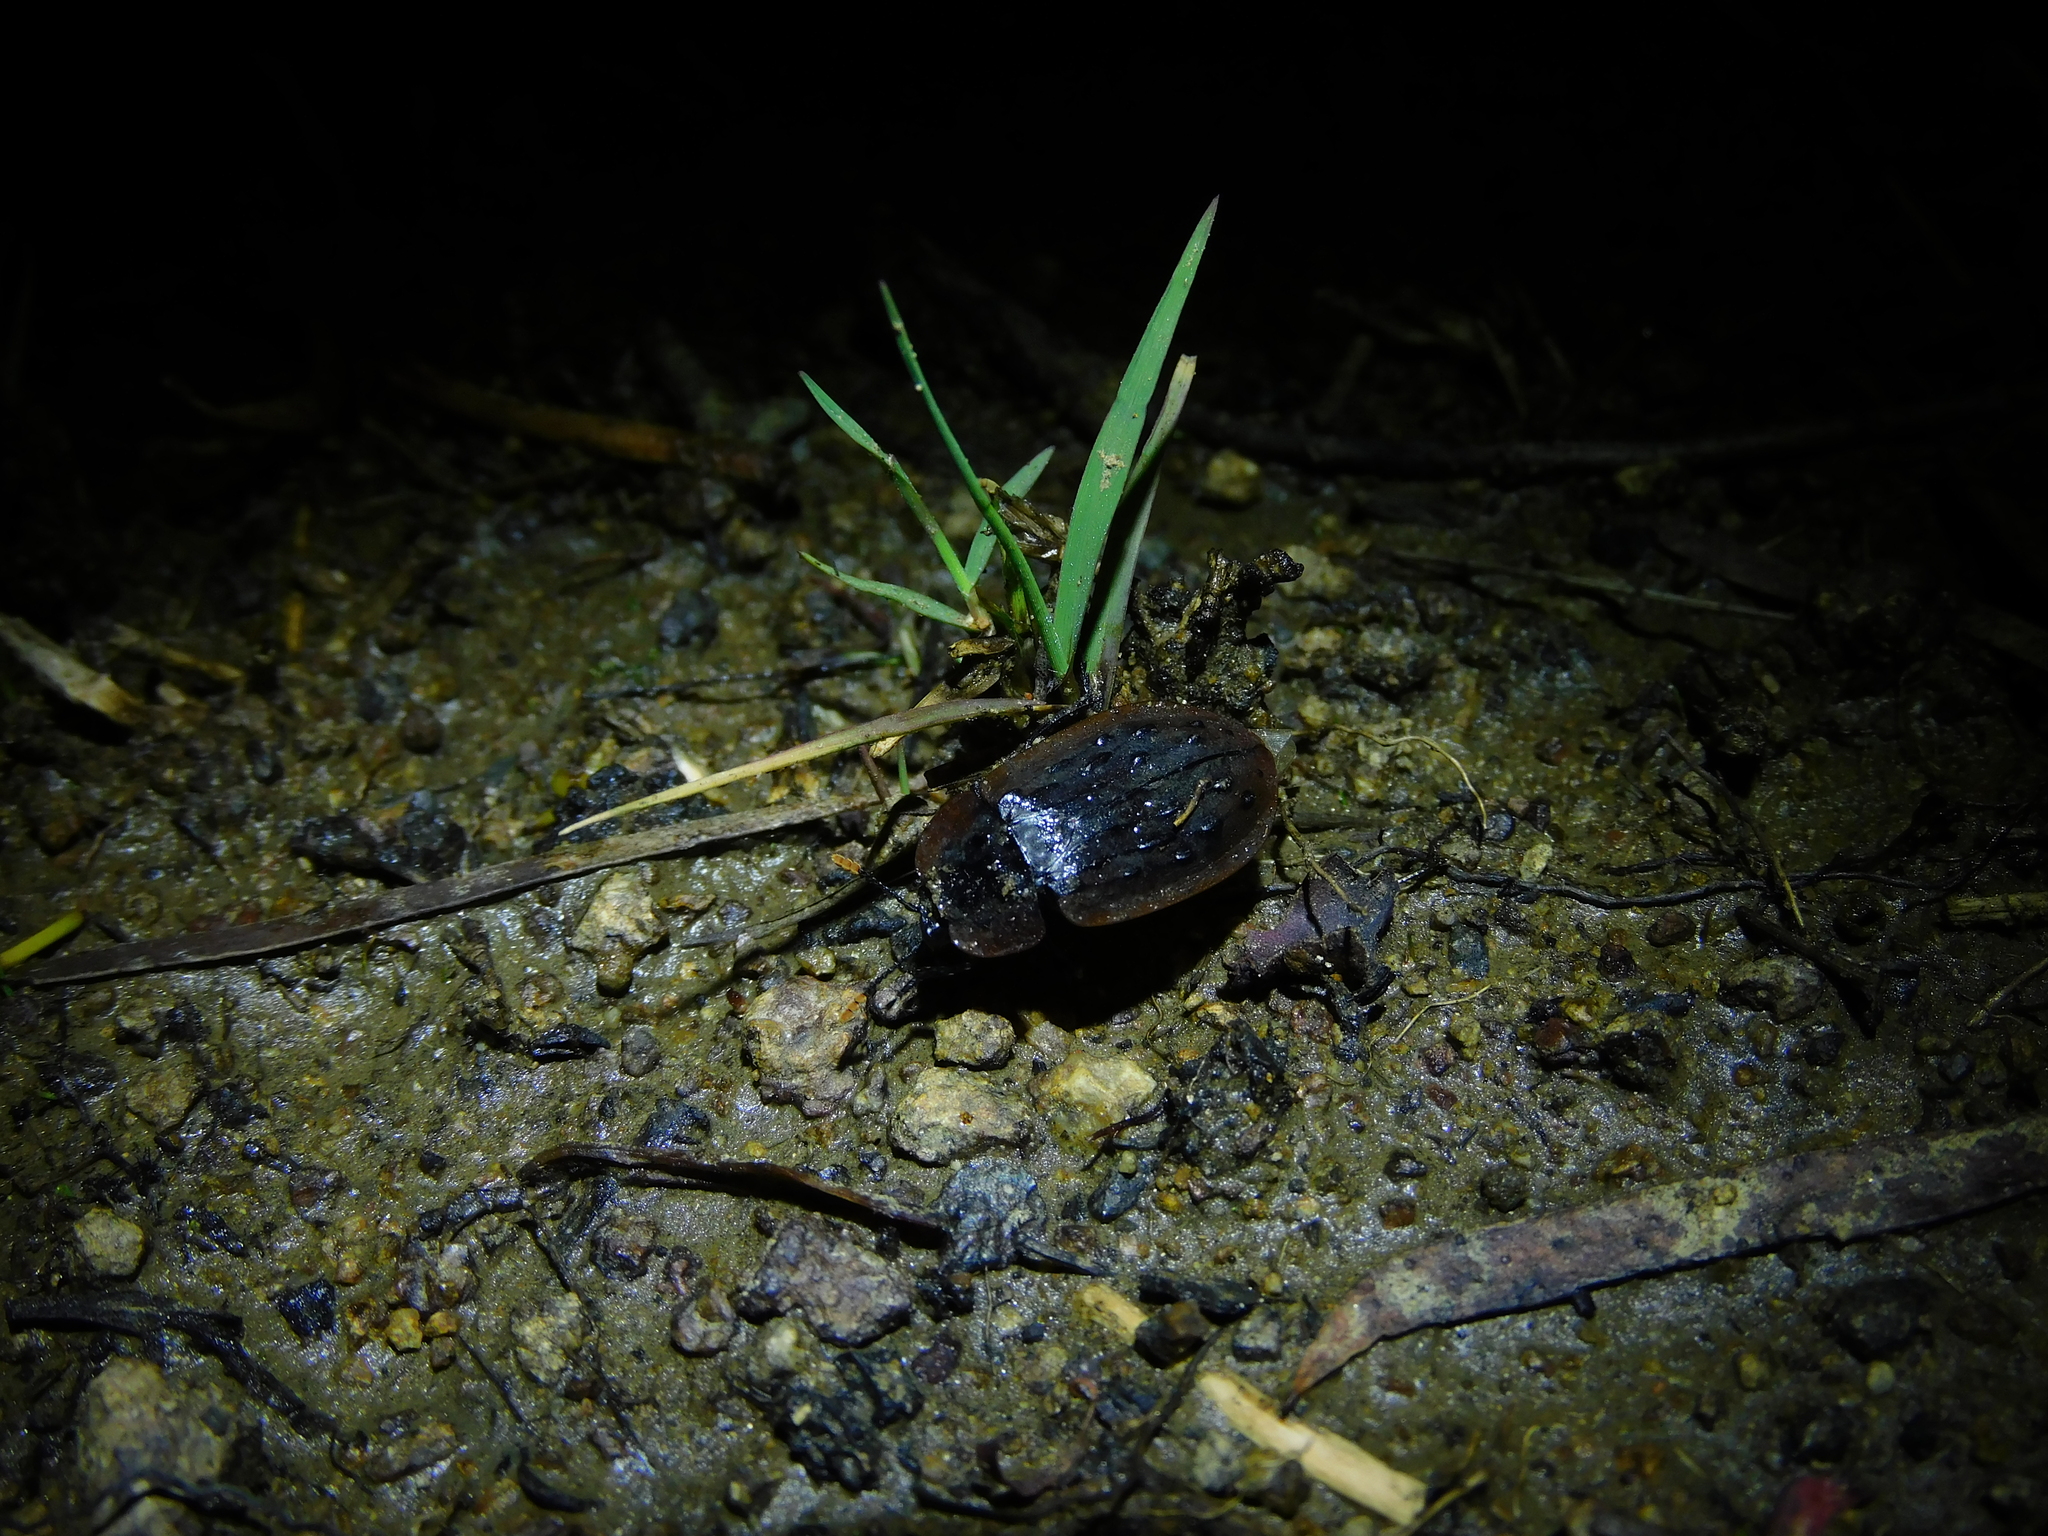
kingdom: Animalia
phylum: Arthropoda
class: Insecta
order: Coleoptera
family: Staphylinidae
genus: Ptomaphila
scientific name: Ptomaphila lacrymosa
